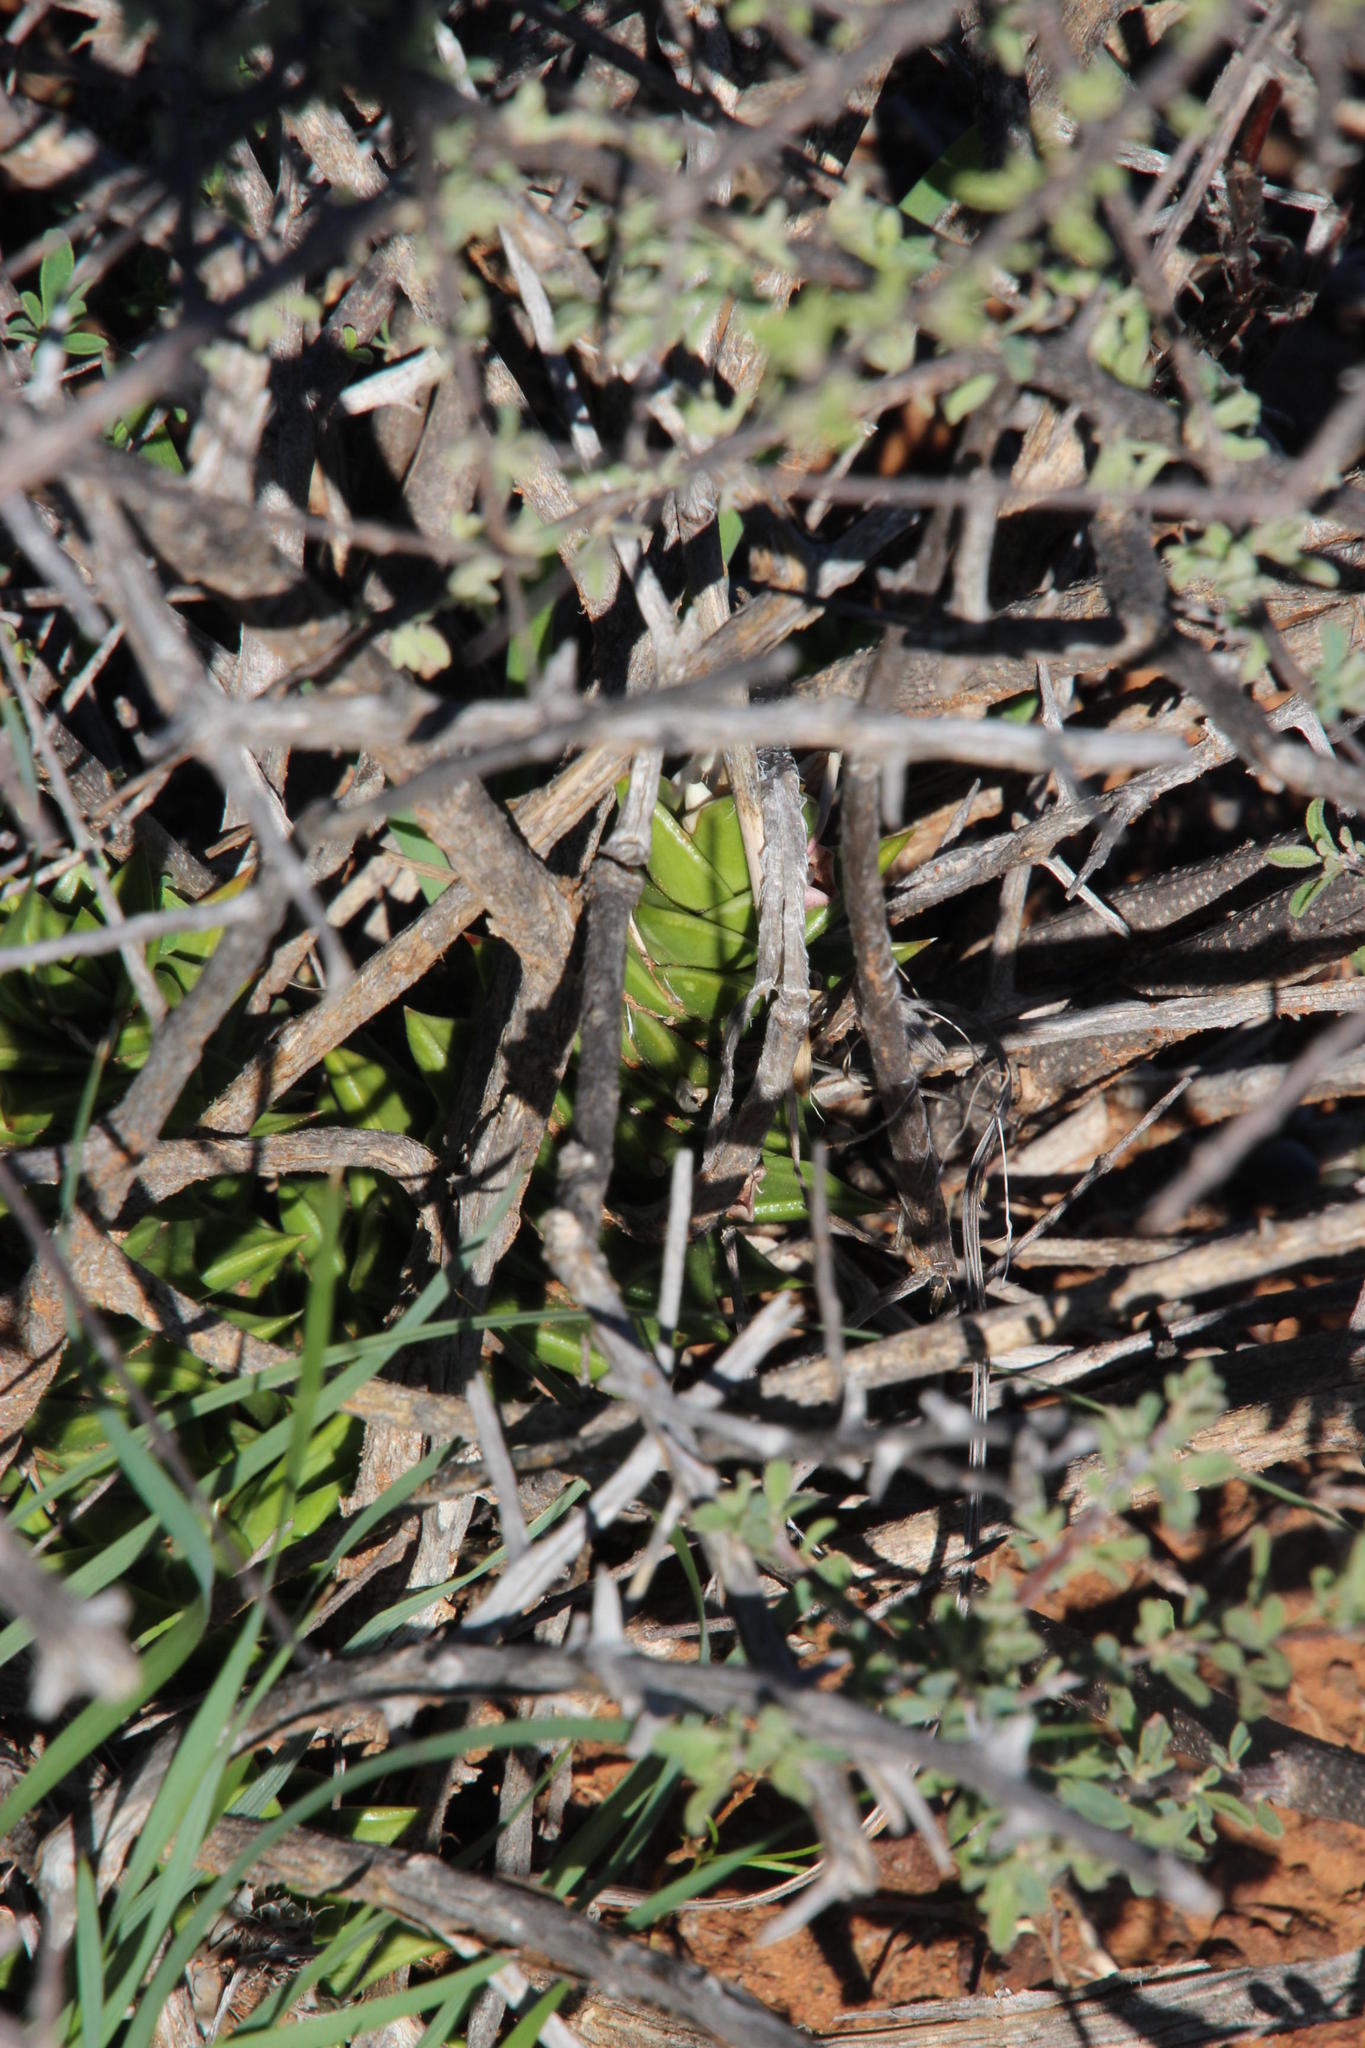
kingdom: Plantae
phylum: Tracheophyta
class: Liliopsida
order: Asparagales
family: Asphodelaceae
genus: Astroloba
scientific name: Astroloba robusta
